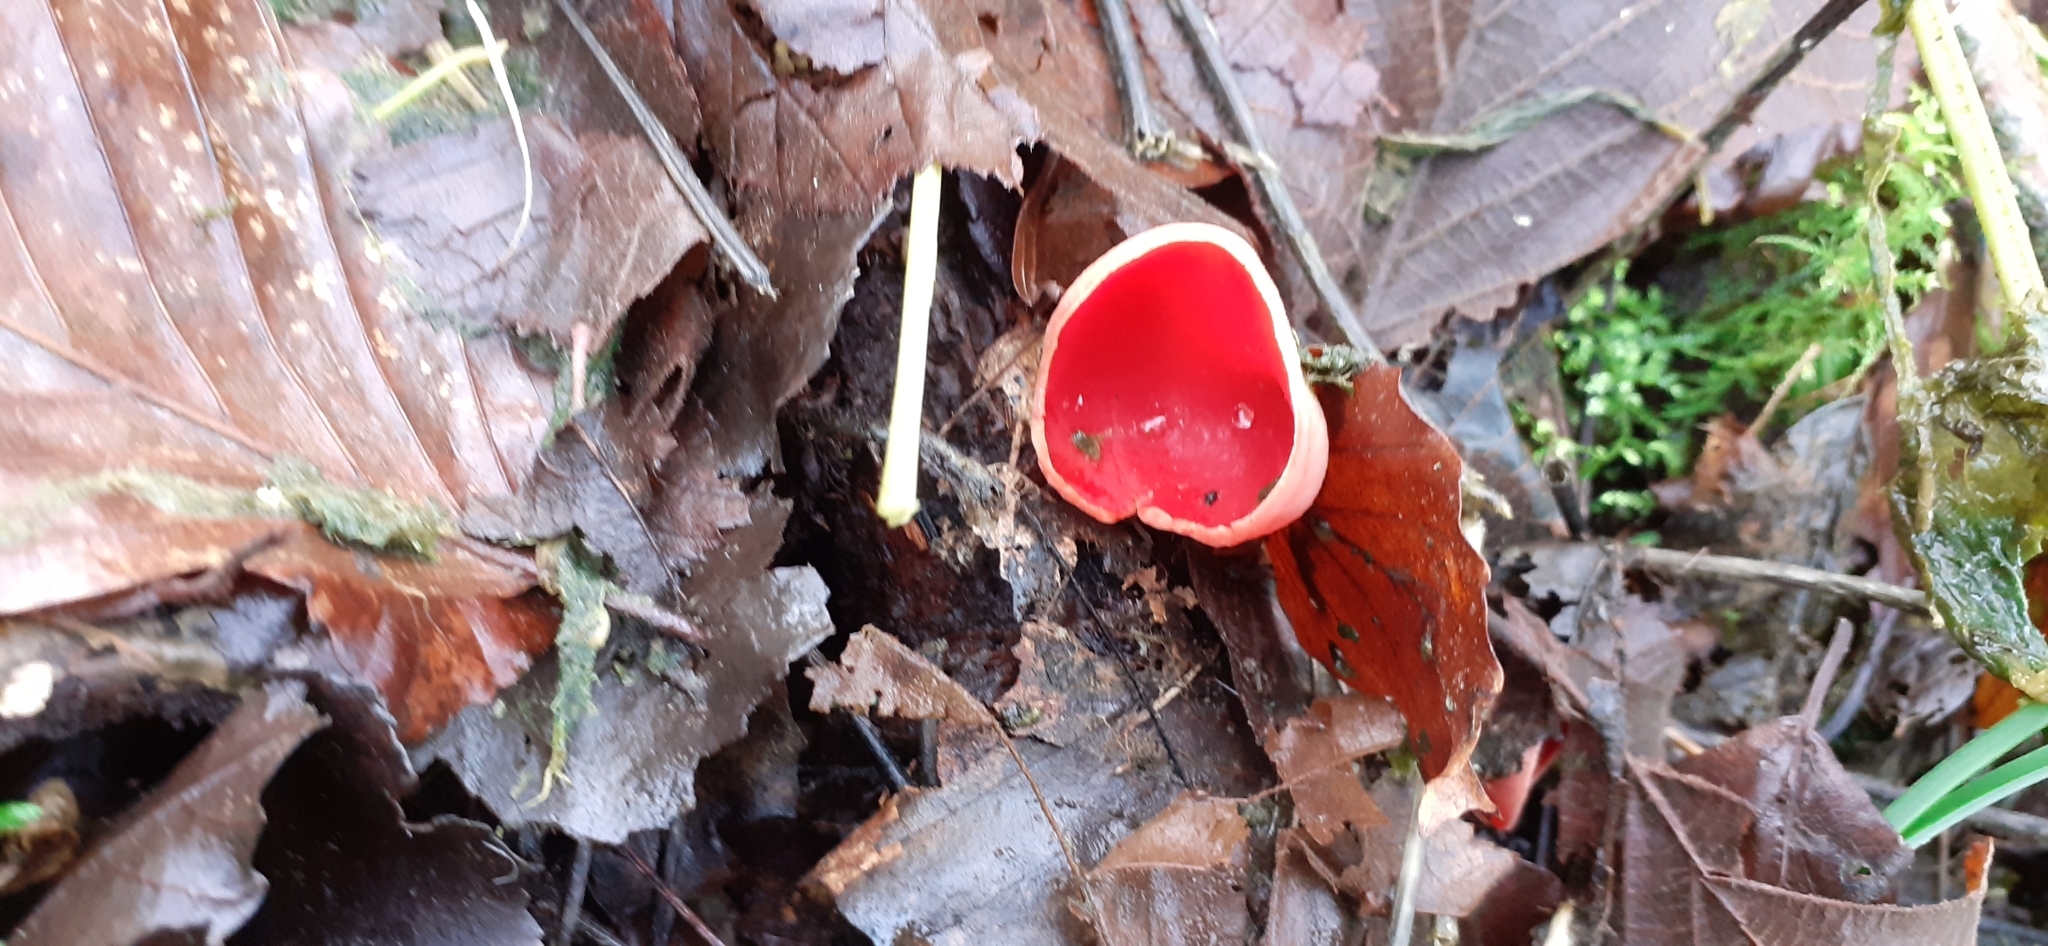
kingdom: Fungi
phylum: Ascomycota
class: Pezizomycetes
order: Pezizales
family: Sarcoscyphaceae
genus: Sarcoscypha
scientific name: Sarcoscypha
